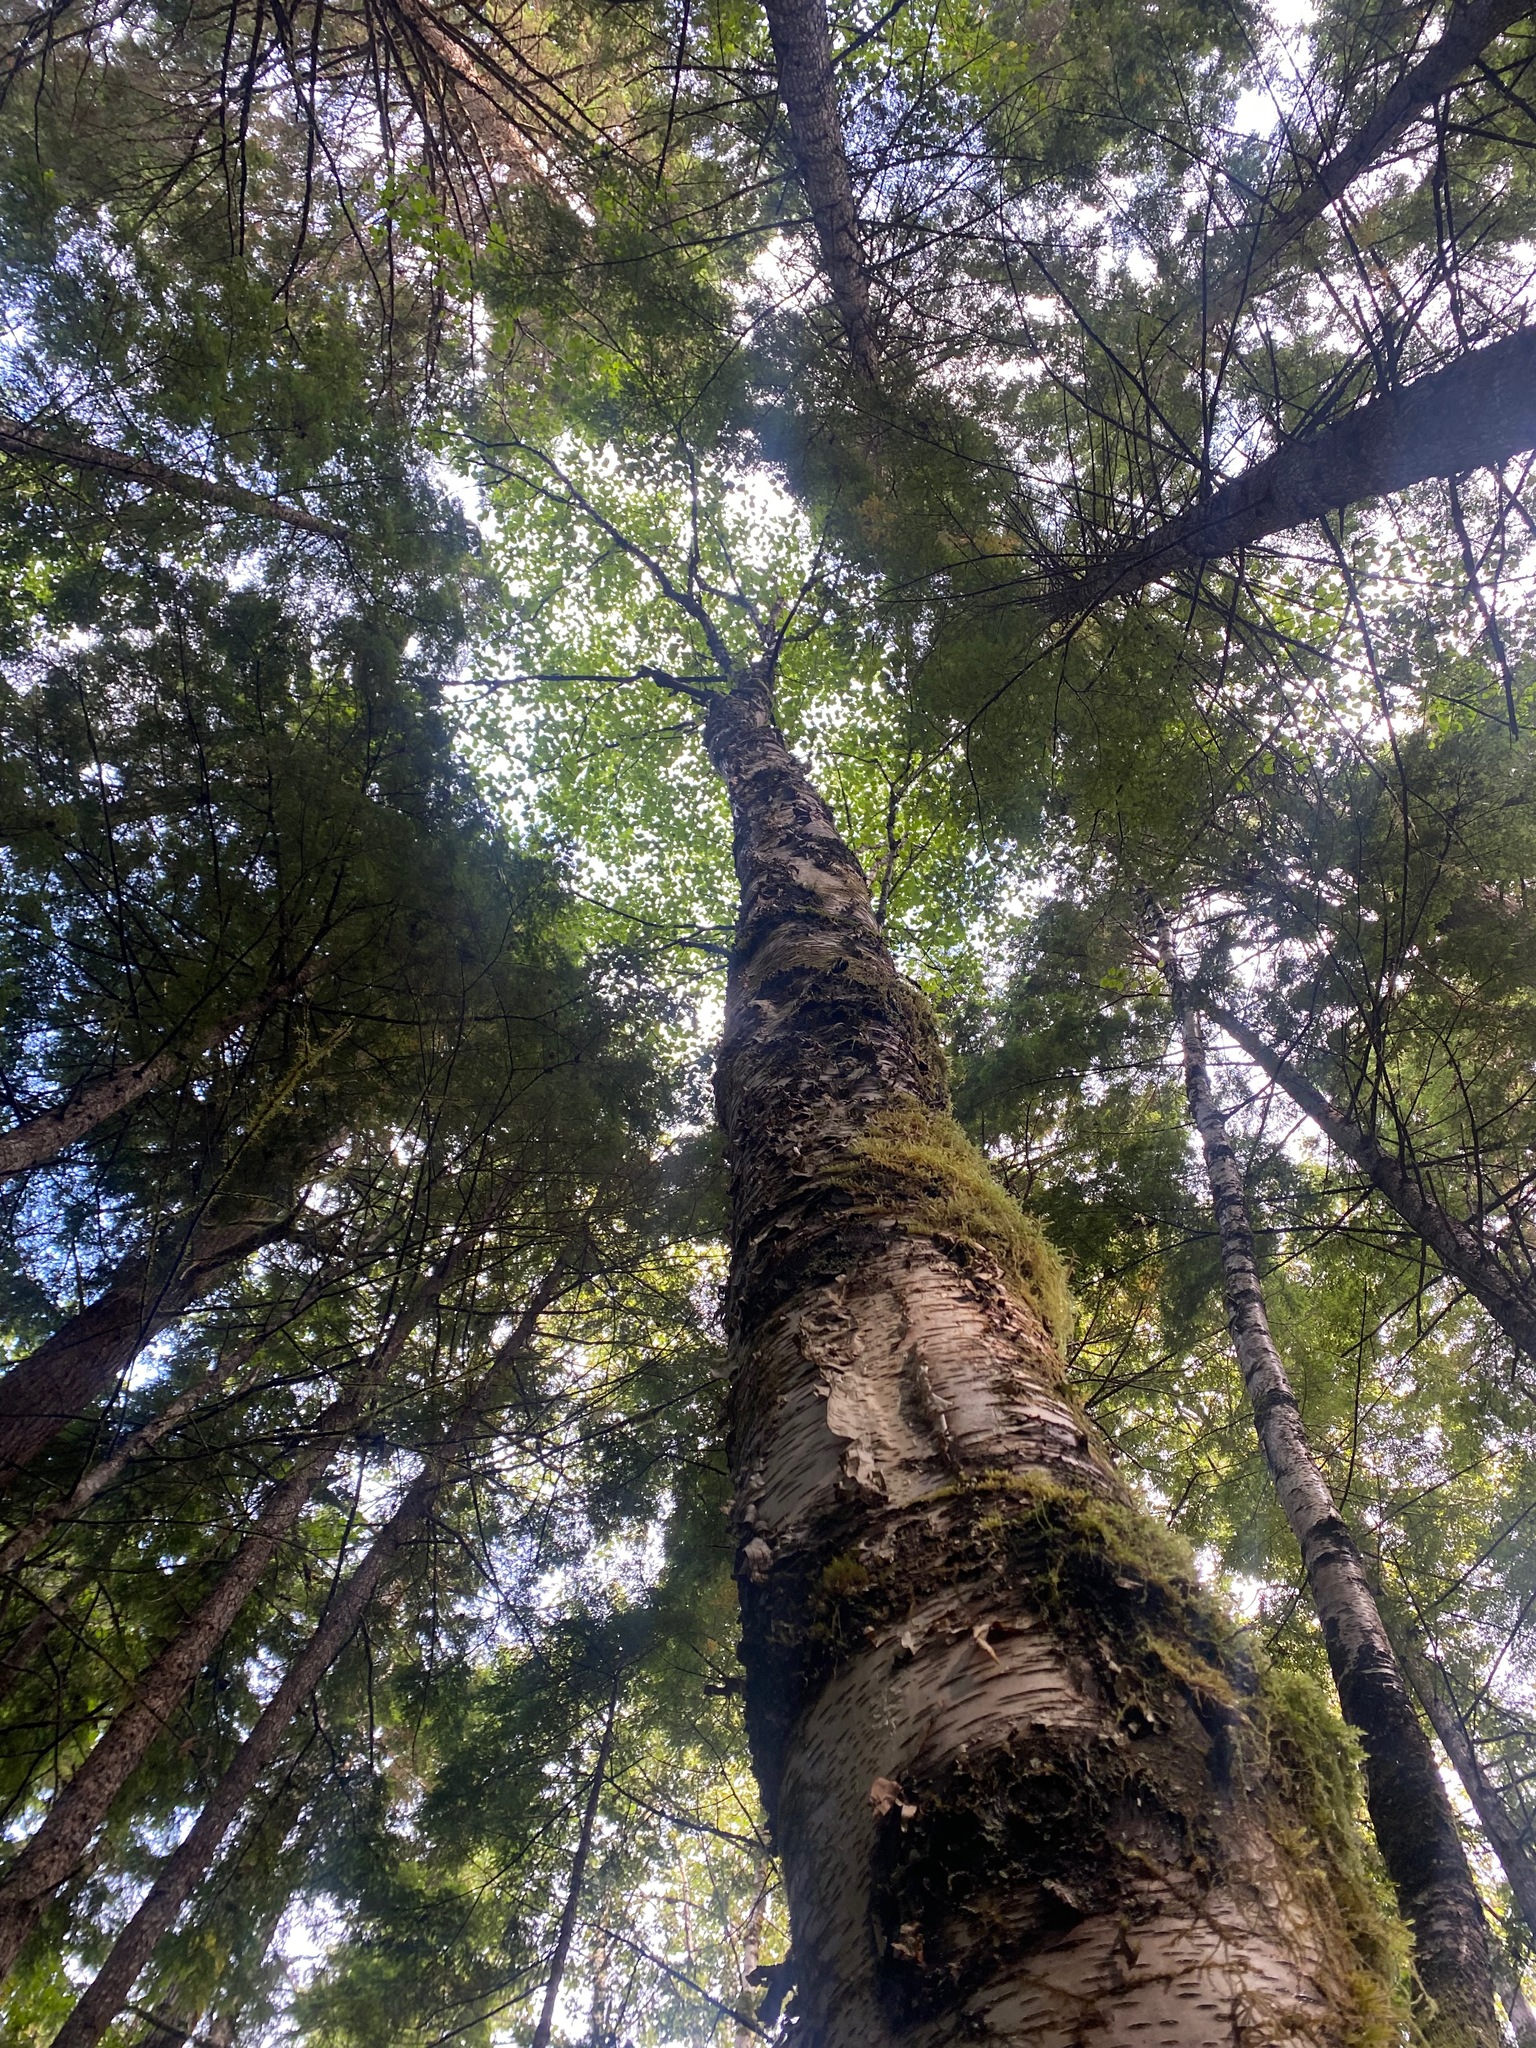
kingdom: Plantae
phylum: Tracheophyta
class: Magnoliopsida
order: Fagales
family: Betulaceae
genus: Betula
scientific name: Betula papyrifera
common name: Paper birch
